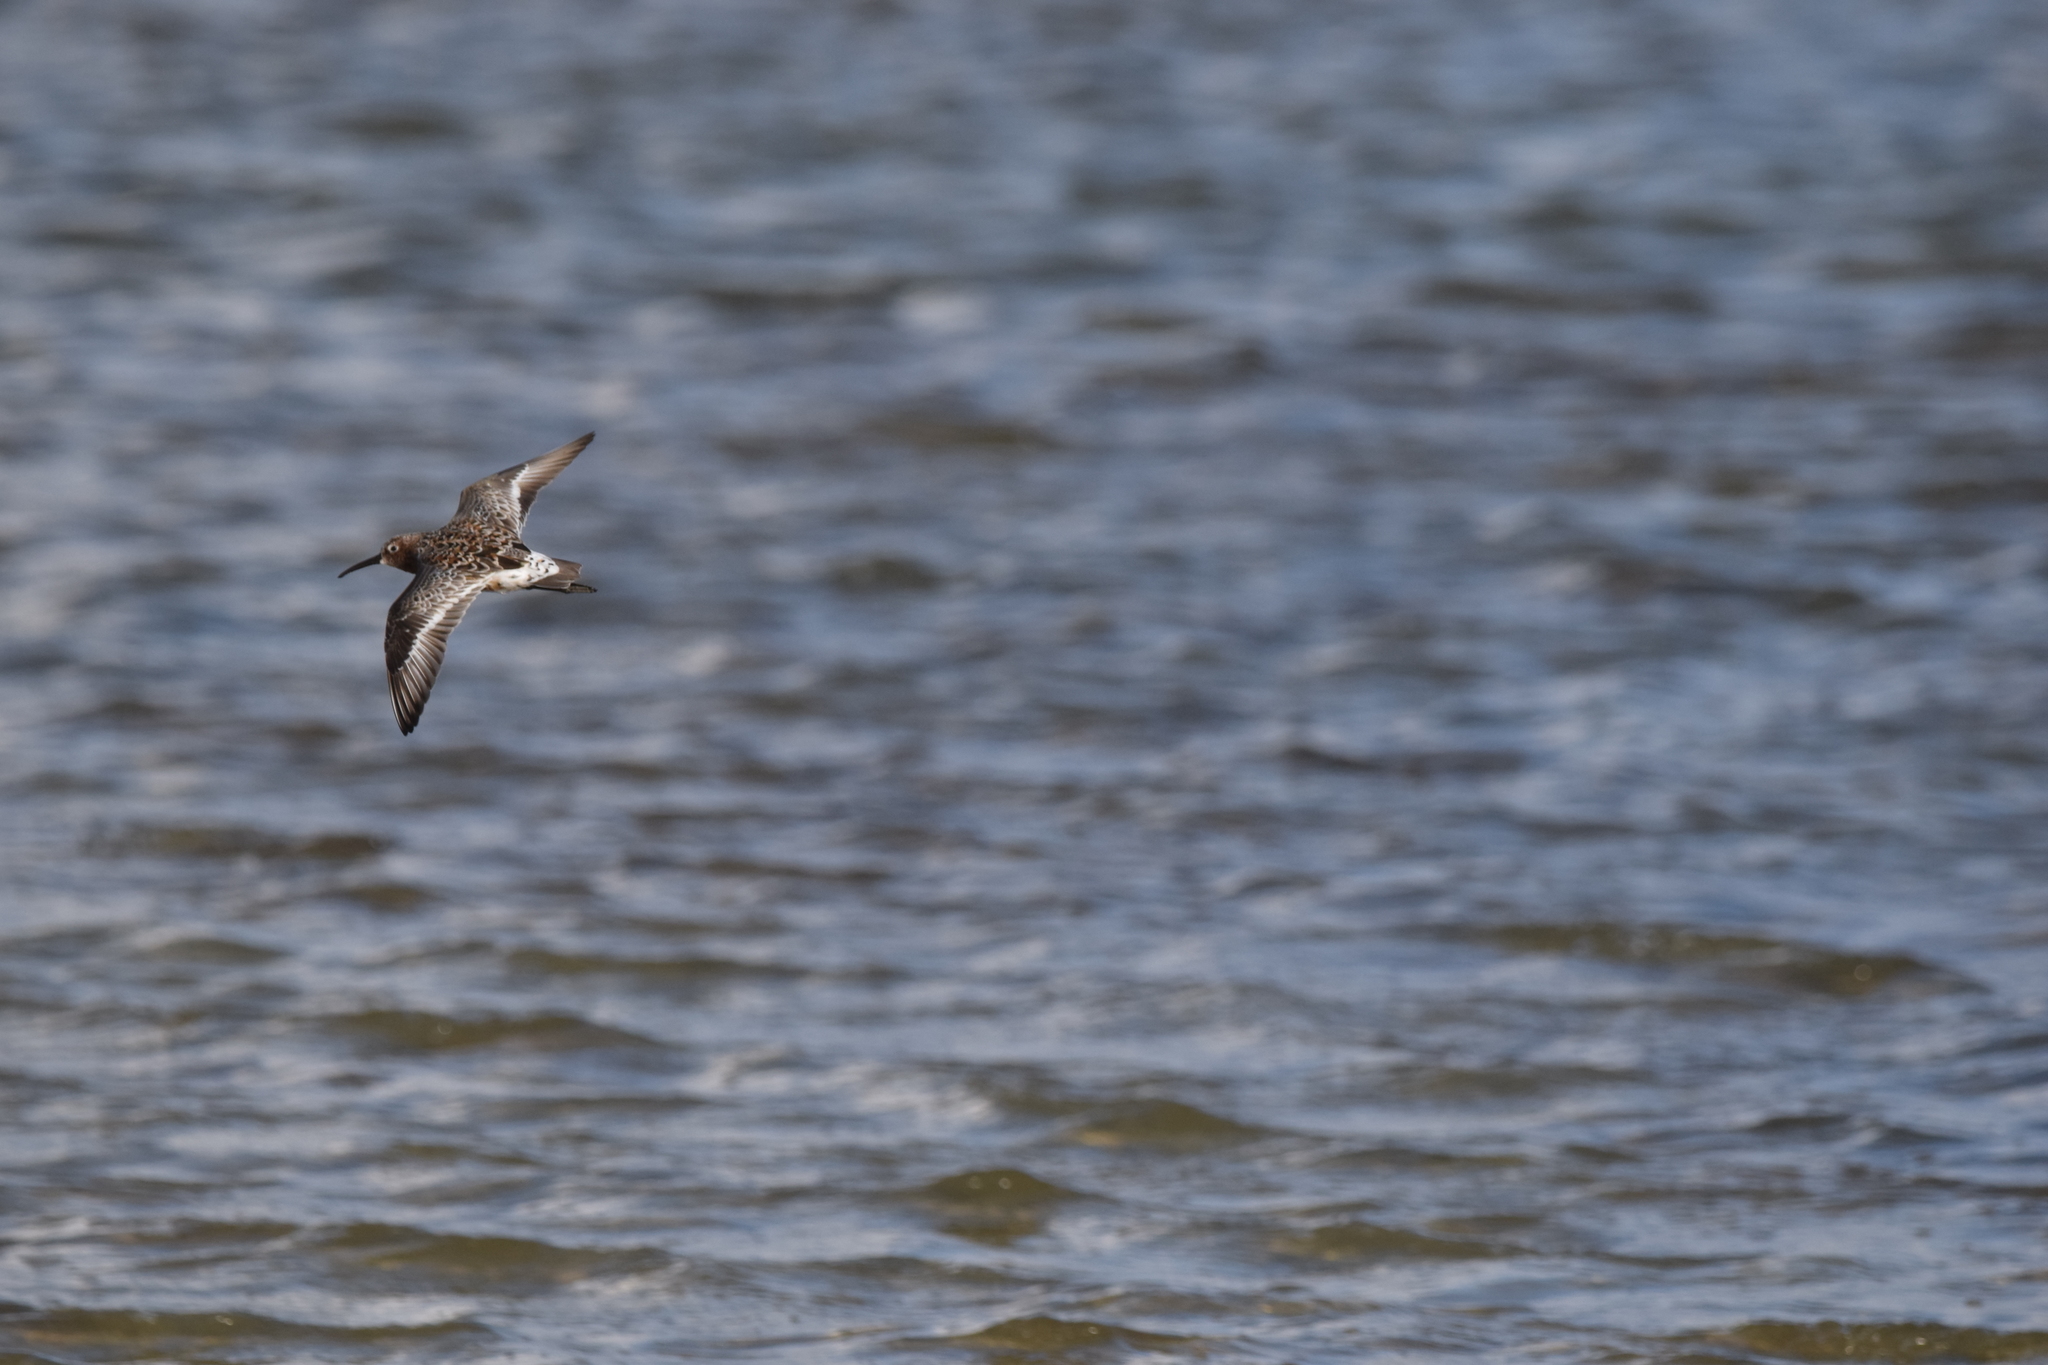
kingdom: Animalia
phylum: Chordata
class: Aves
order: Charadriiformes
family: Scolopacidae
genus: Calidris
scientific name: Calidris ferruginea
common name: Curlew sandpiper
